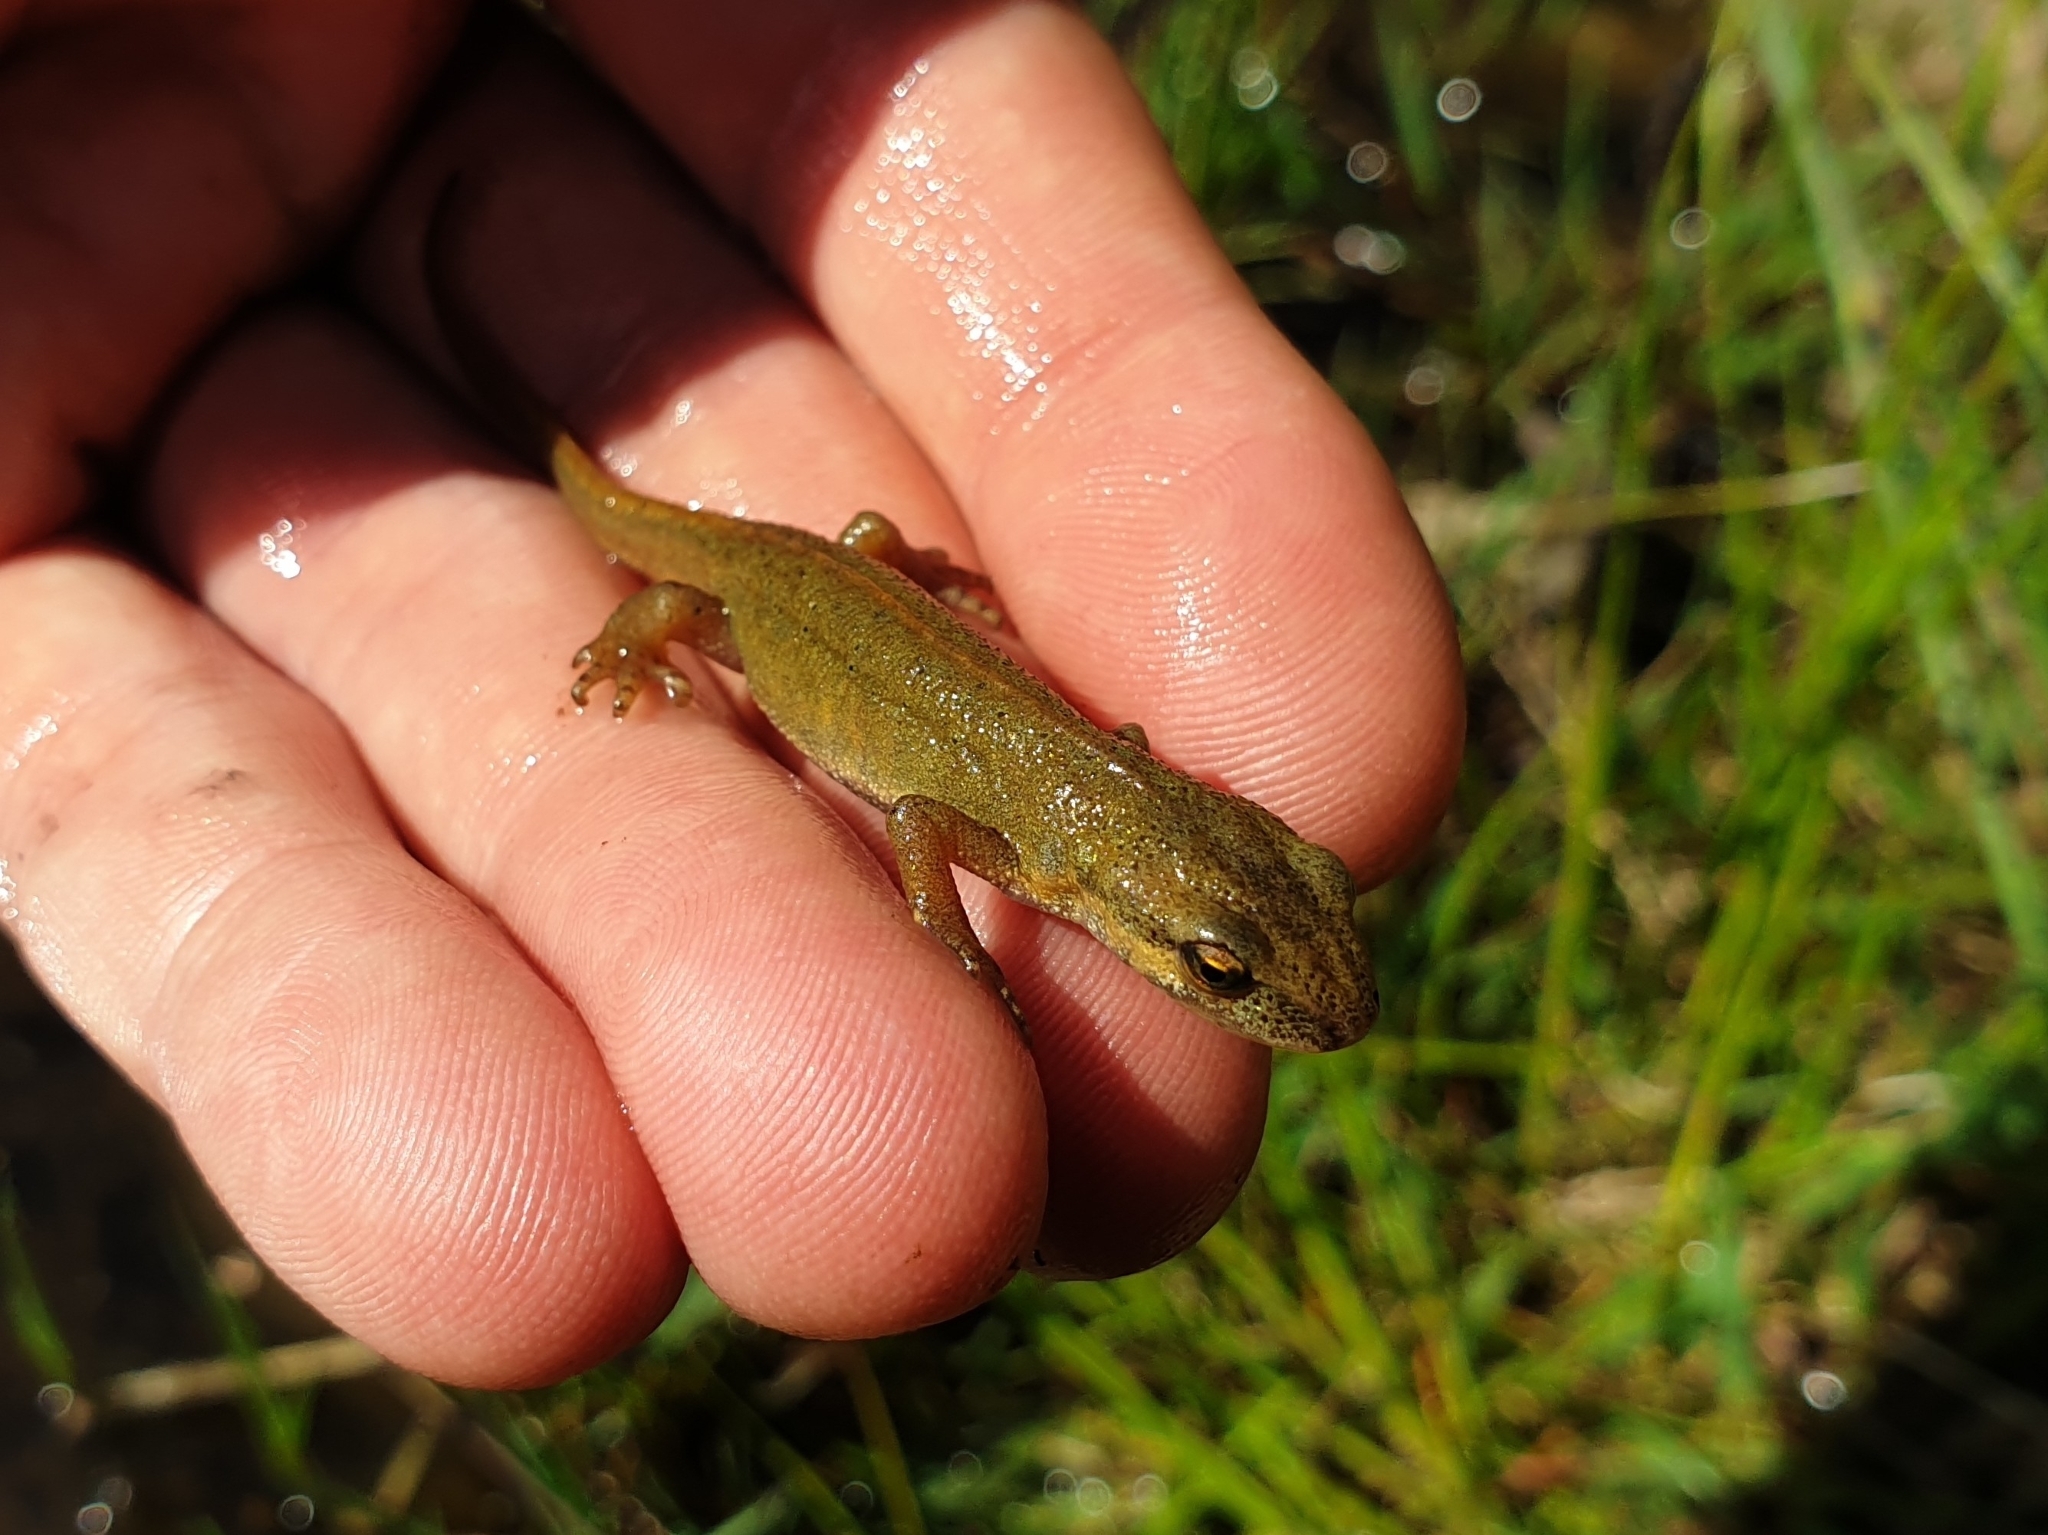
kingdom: Animalia
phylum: Chordata
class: Amphibia
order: Caudata
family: Salamandridae
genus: Lissotriton
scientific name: Lissotriton
